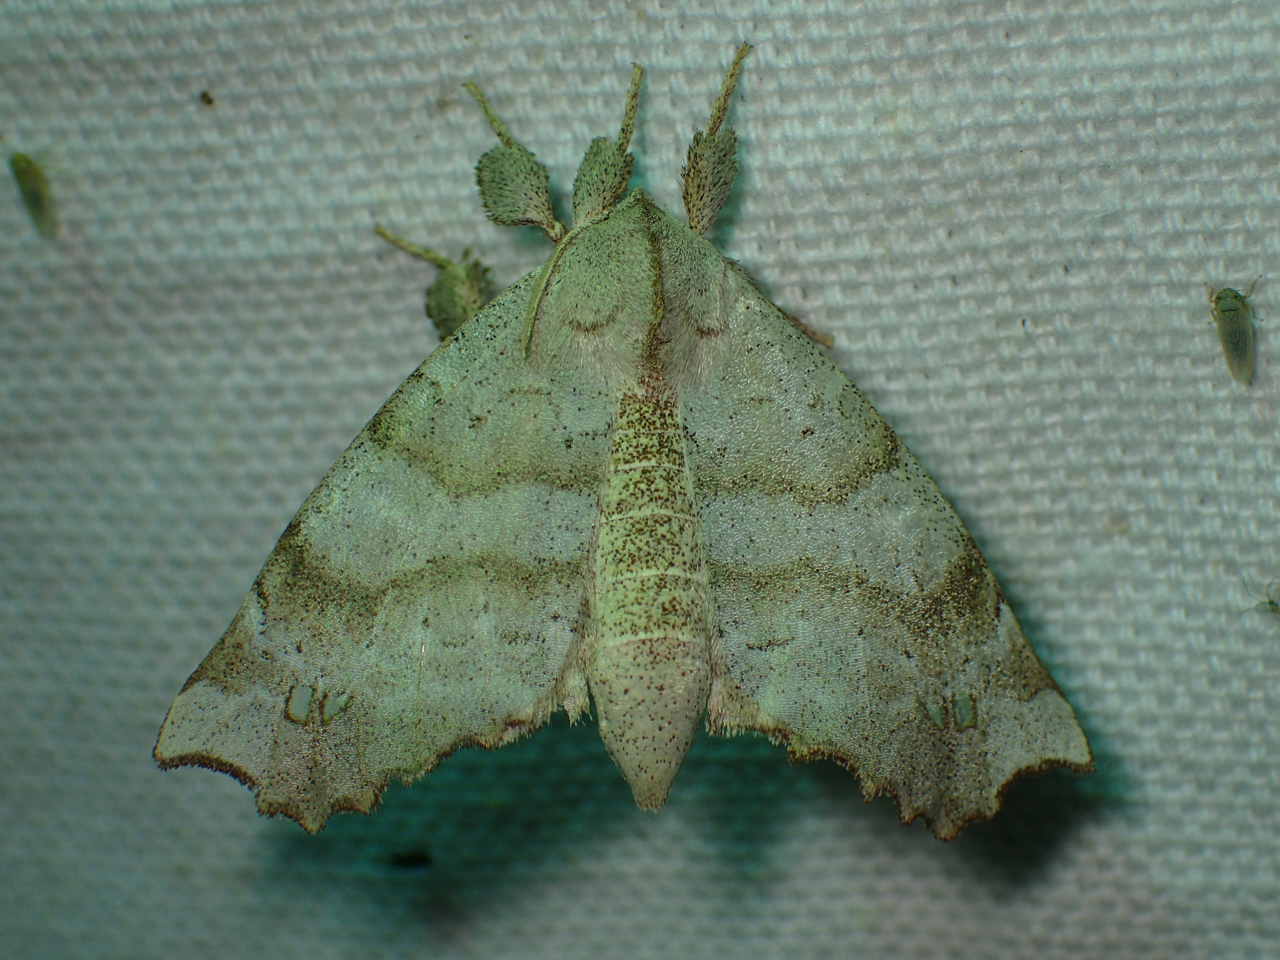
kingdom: Animalia
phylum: Arthropoda
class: Insecta
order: Lepidoptera
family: Apatelodidae
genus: Olceclostera
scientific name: Olceclostera angelica
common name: Angel moth
